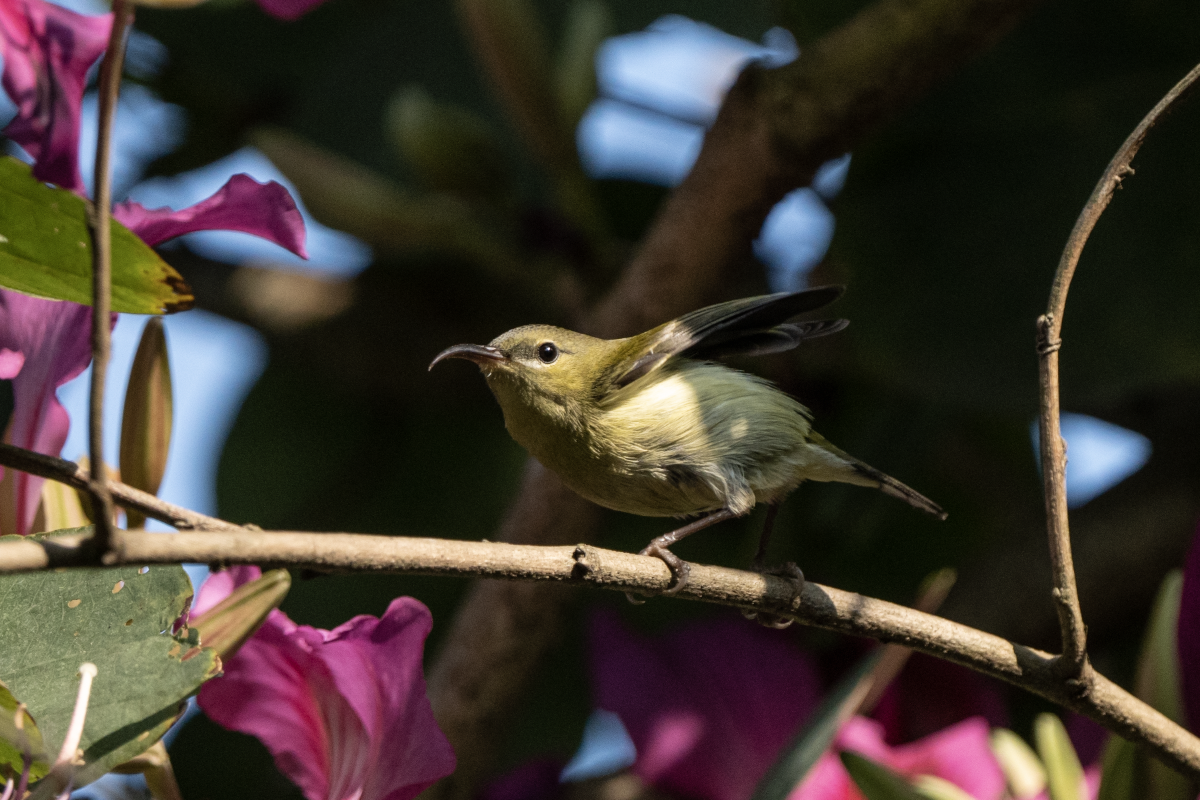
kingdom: Animalia
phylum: Chordata
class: Aves
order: Passeriformes
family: Nectariniidae
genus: Aethopyga
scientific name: Aethopyga christinae
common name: Fork-tailed sunbird
